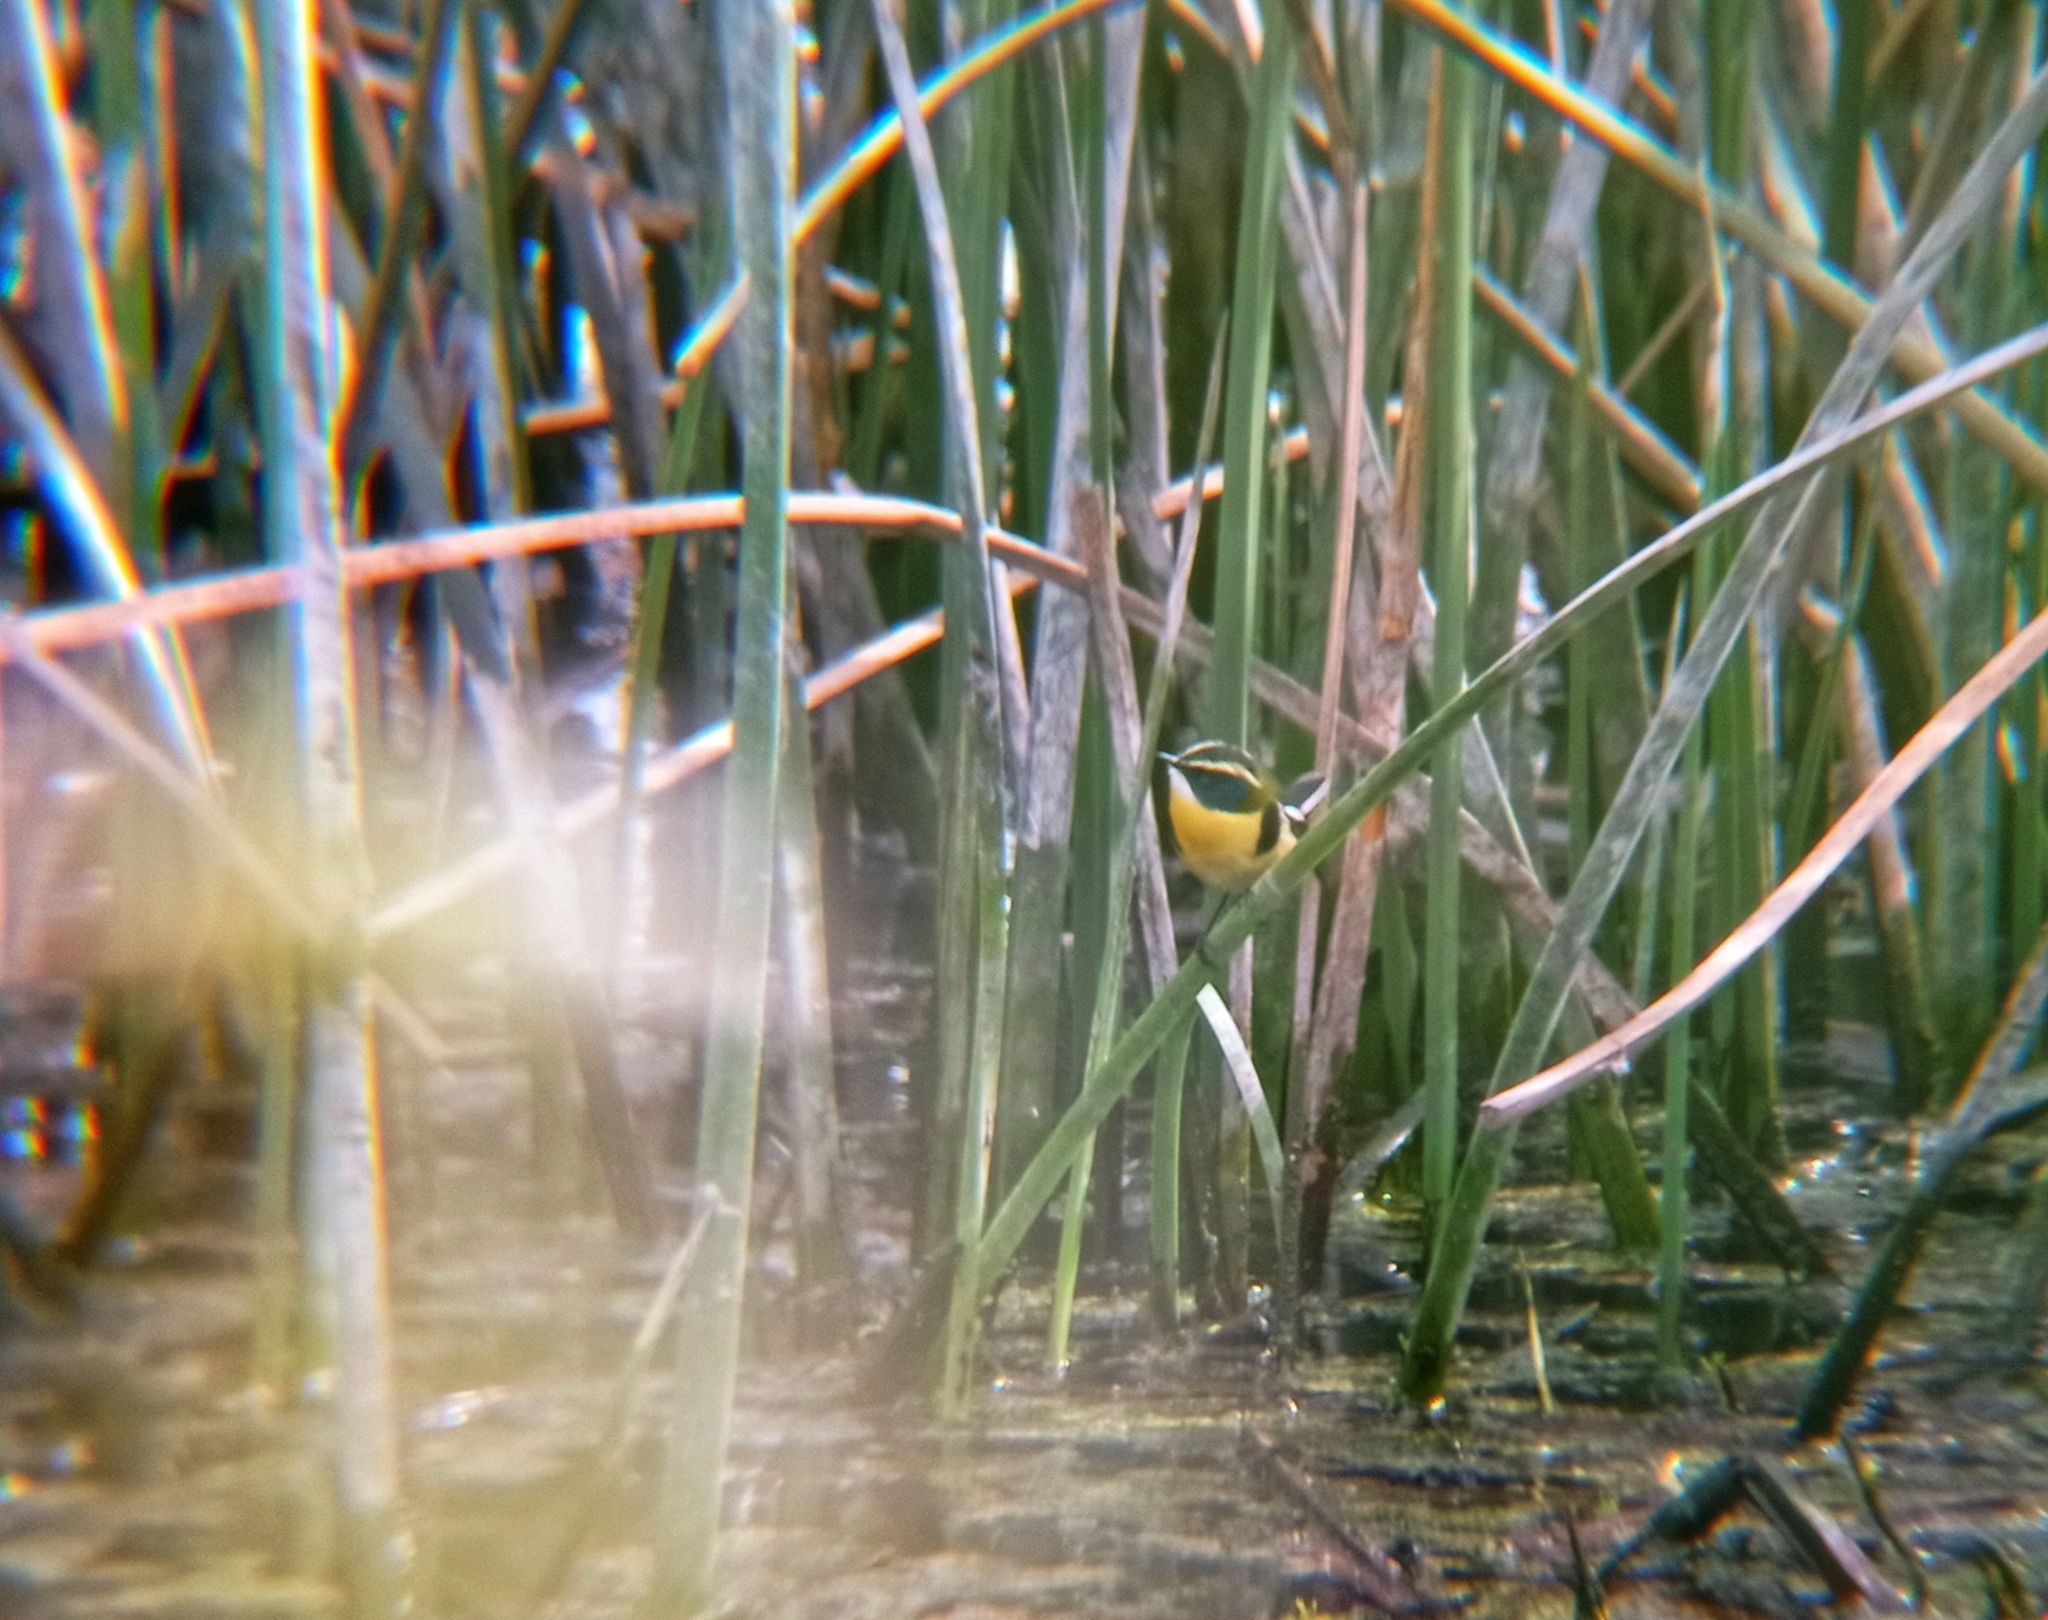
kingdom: Animalia
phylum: Chordata
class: Aves
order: Passeriformes
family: Tyrannidae
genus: Tachuris
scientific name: Tachuris rubrigastra
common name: Many-colored rush tyrant
